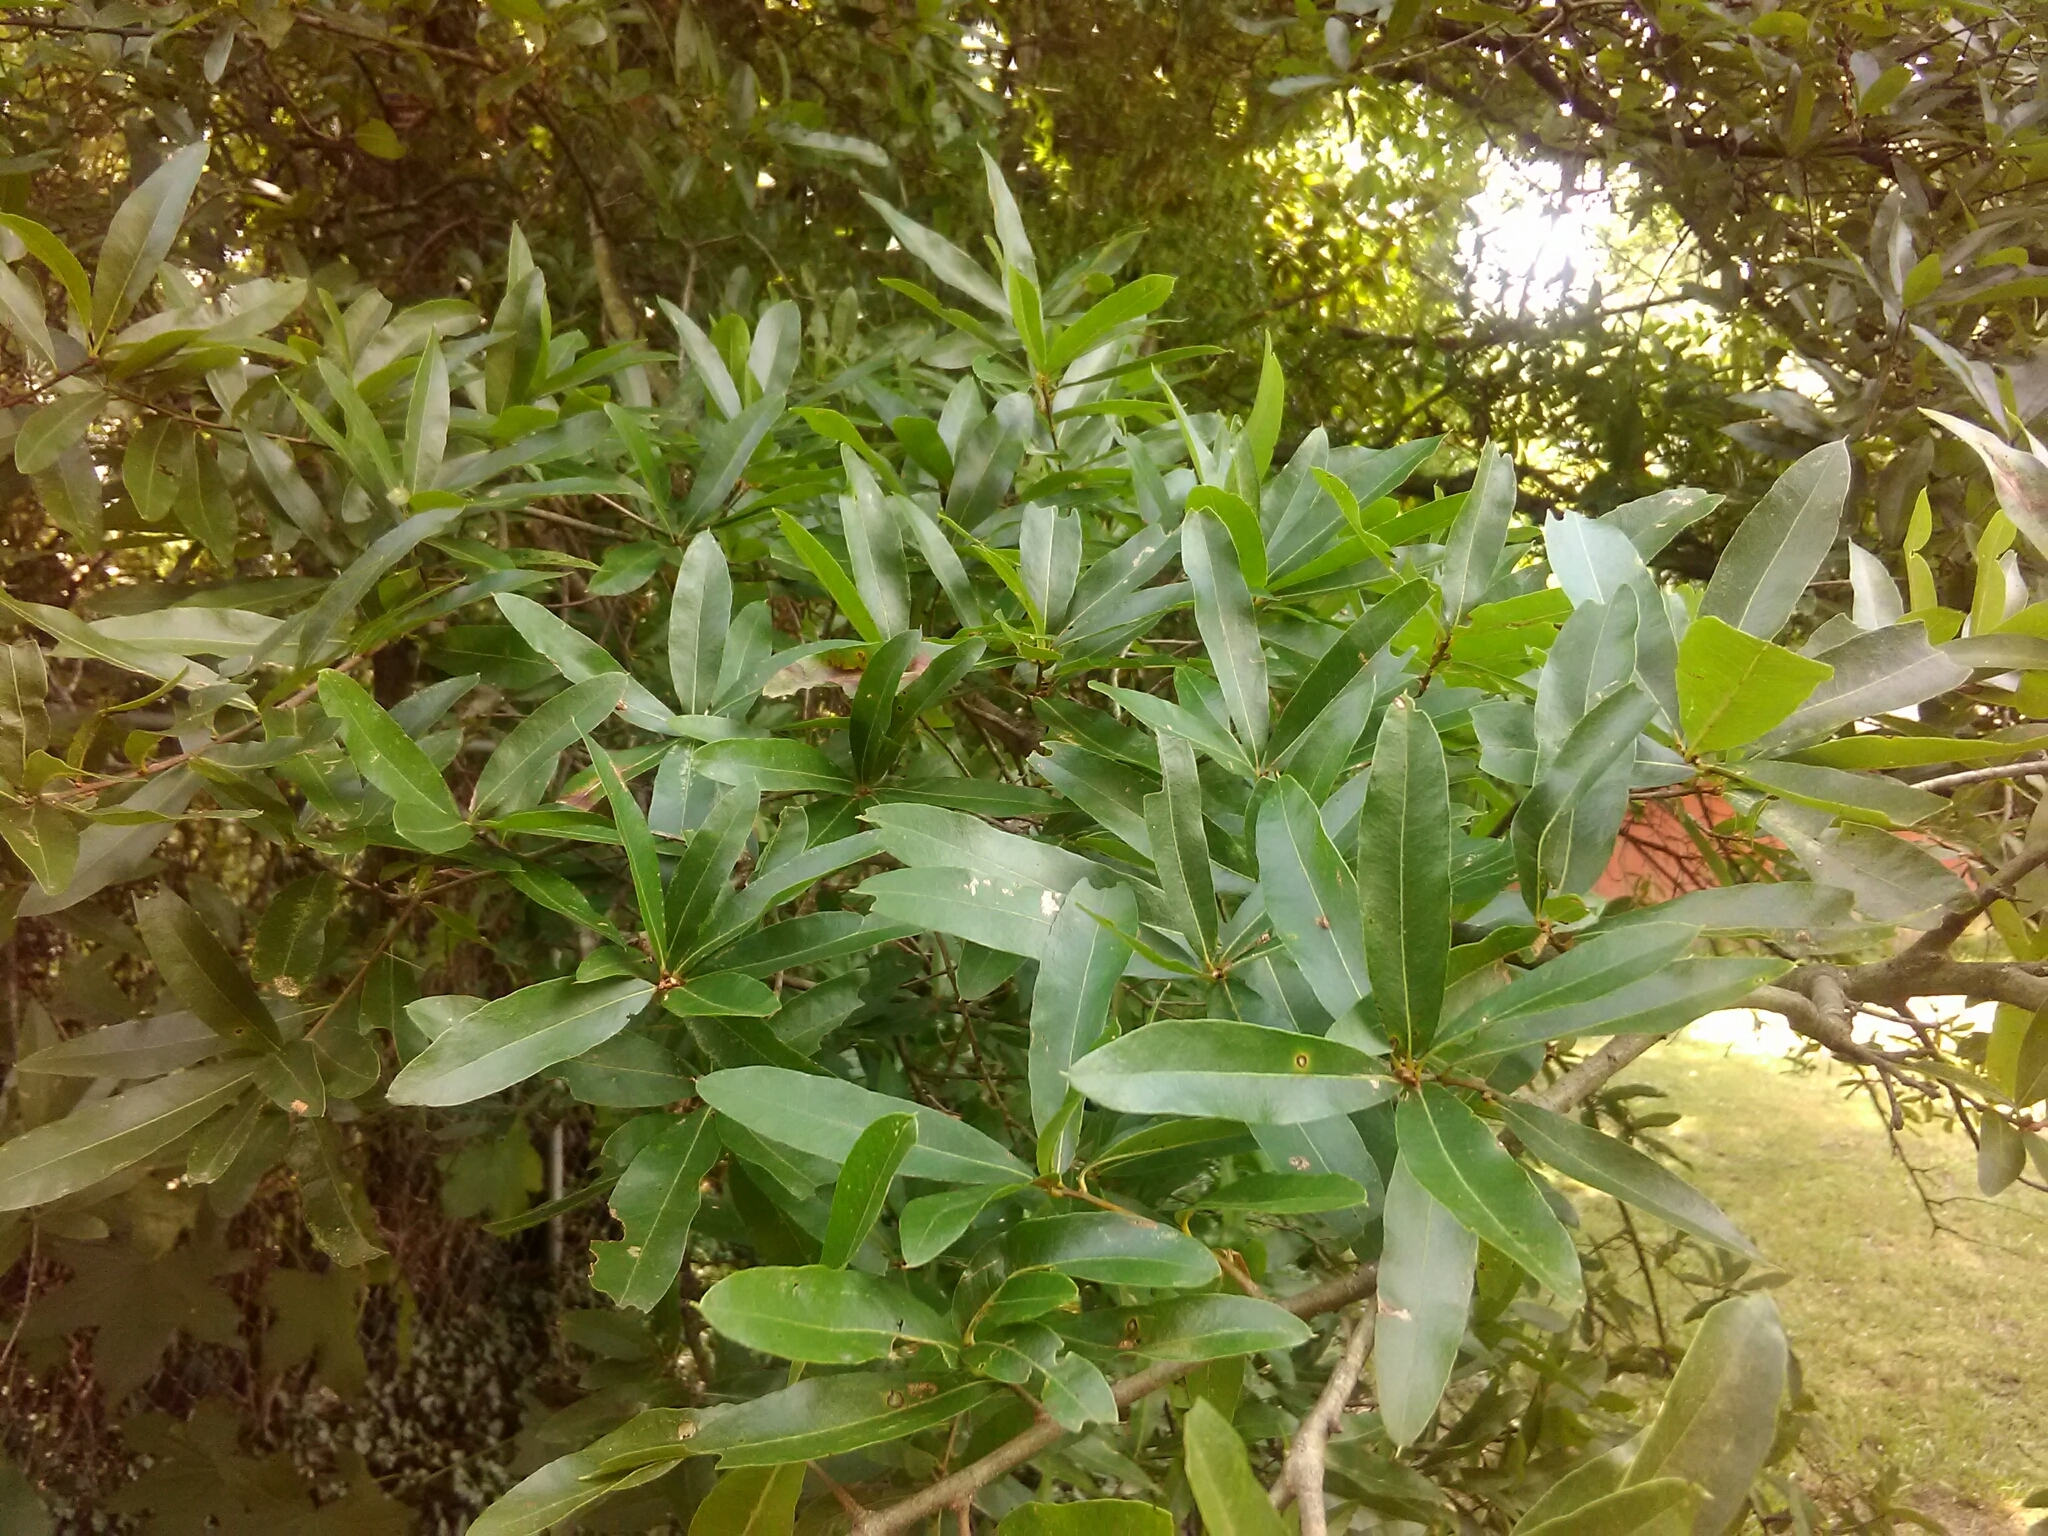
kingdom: Plantae
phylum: Tracheophyta
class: Magnoliopsida
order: Fagales
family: Fagaceae
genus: Quercus
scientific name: Quercus phellos
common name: Willow oak
